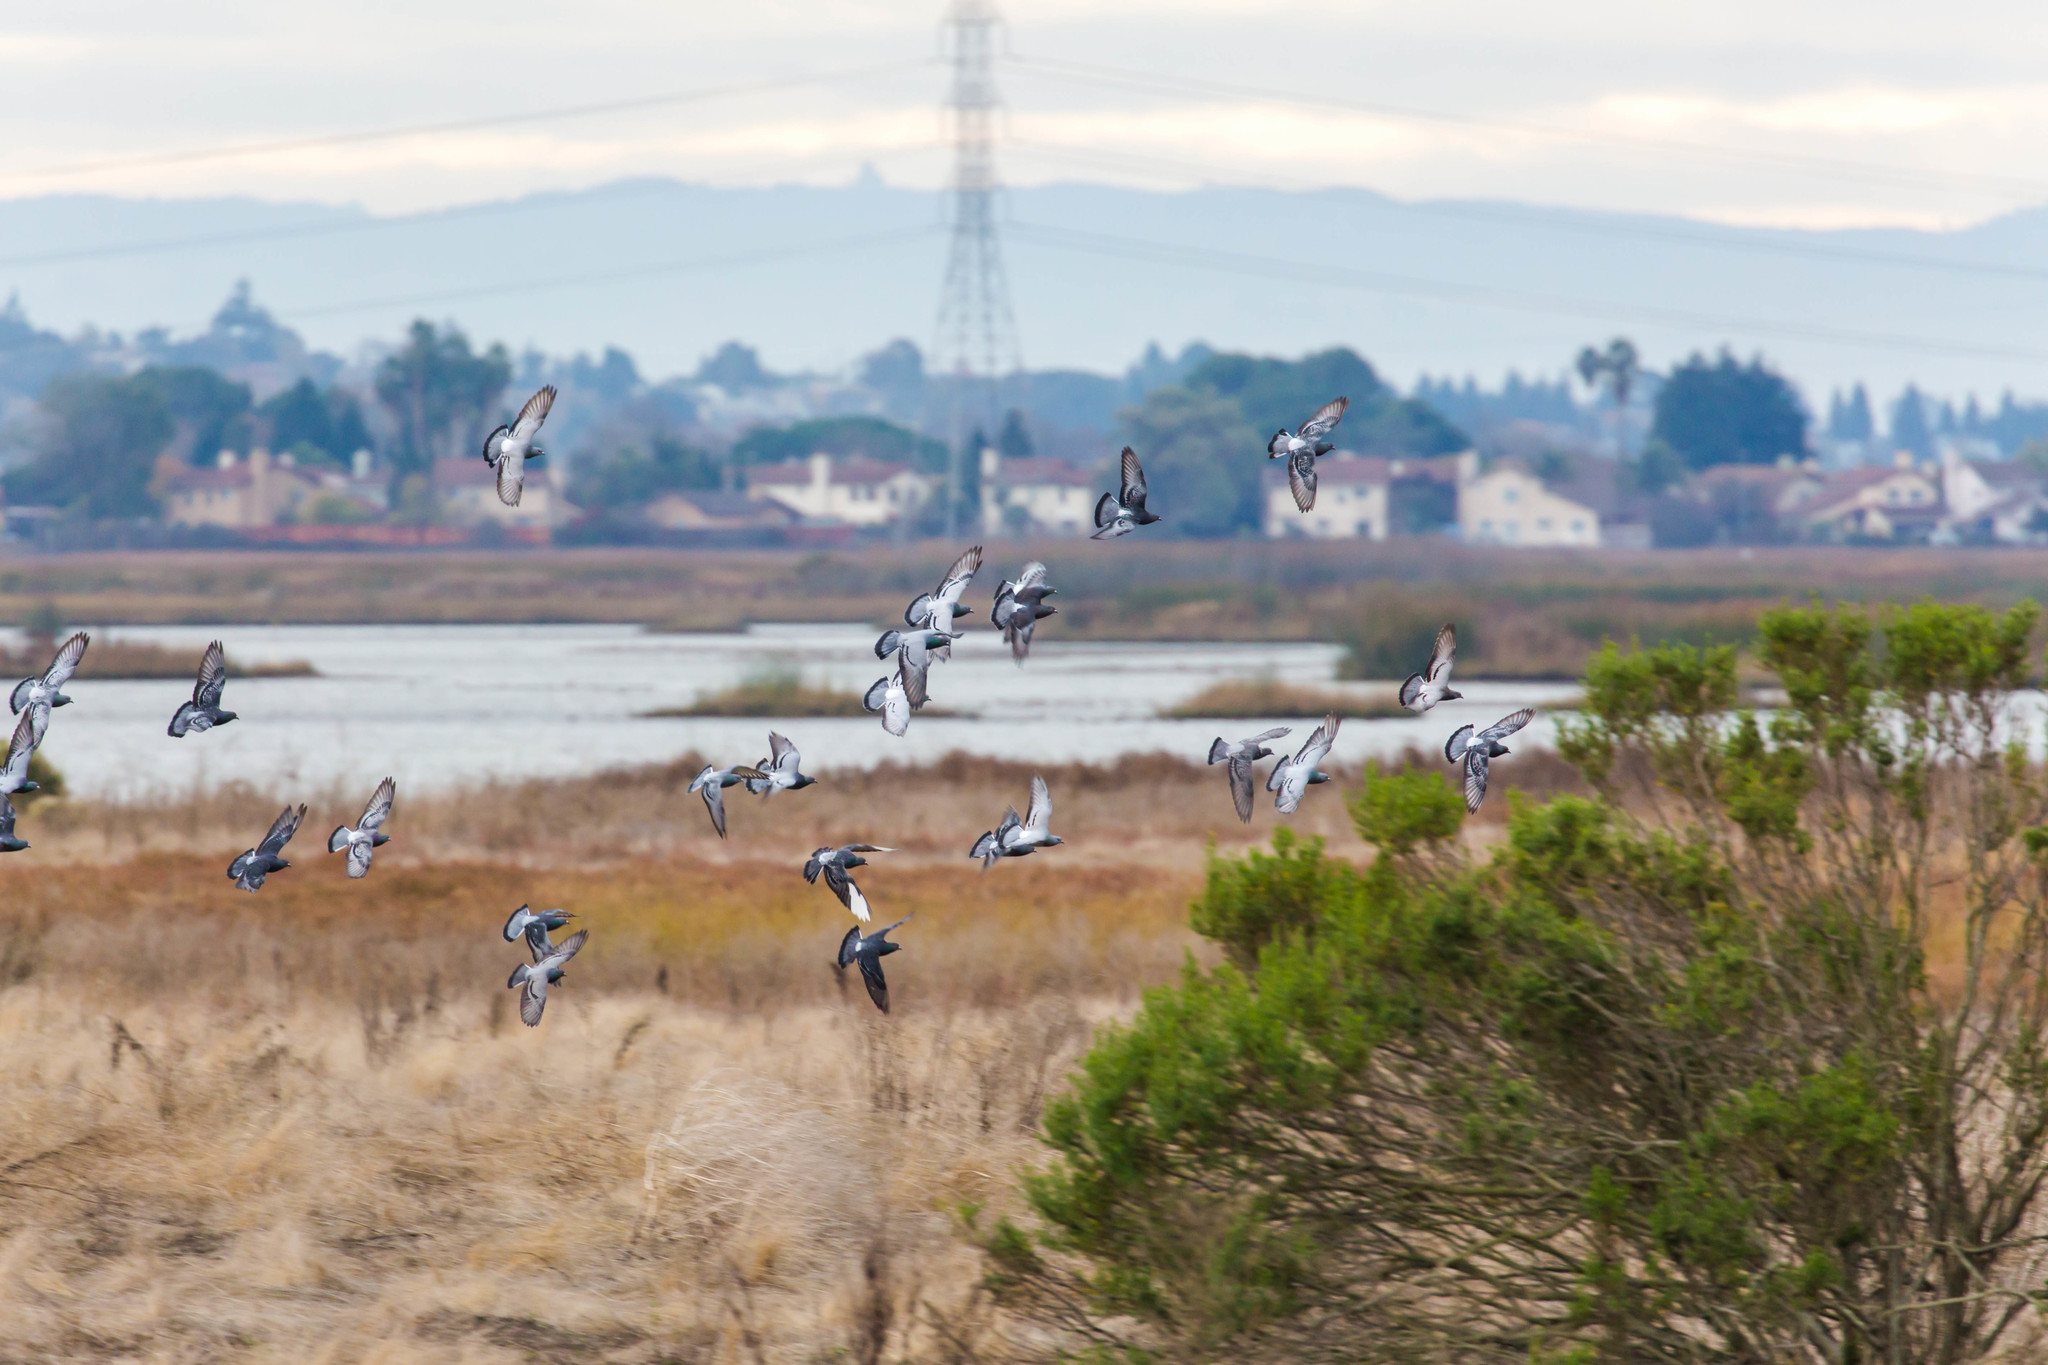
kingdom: Animalia
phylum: Chordata
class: Aves
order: Columbiformes
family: Columbidae
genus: Columba
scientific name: Columba livia
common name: Rock pigeon
